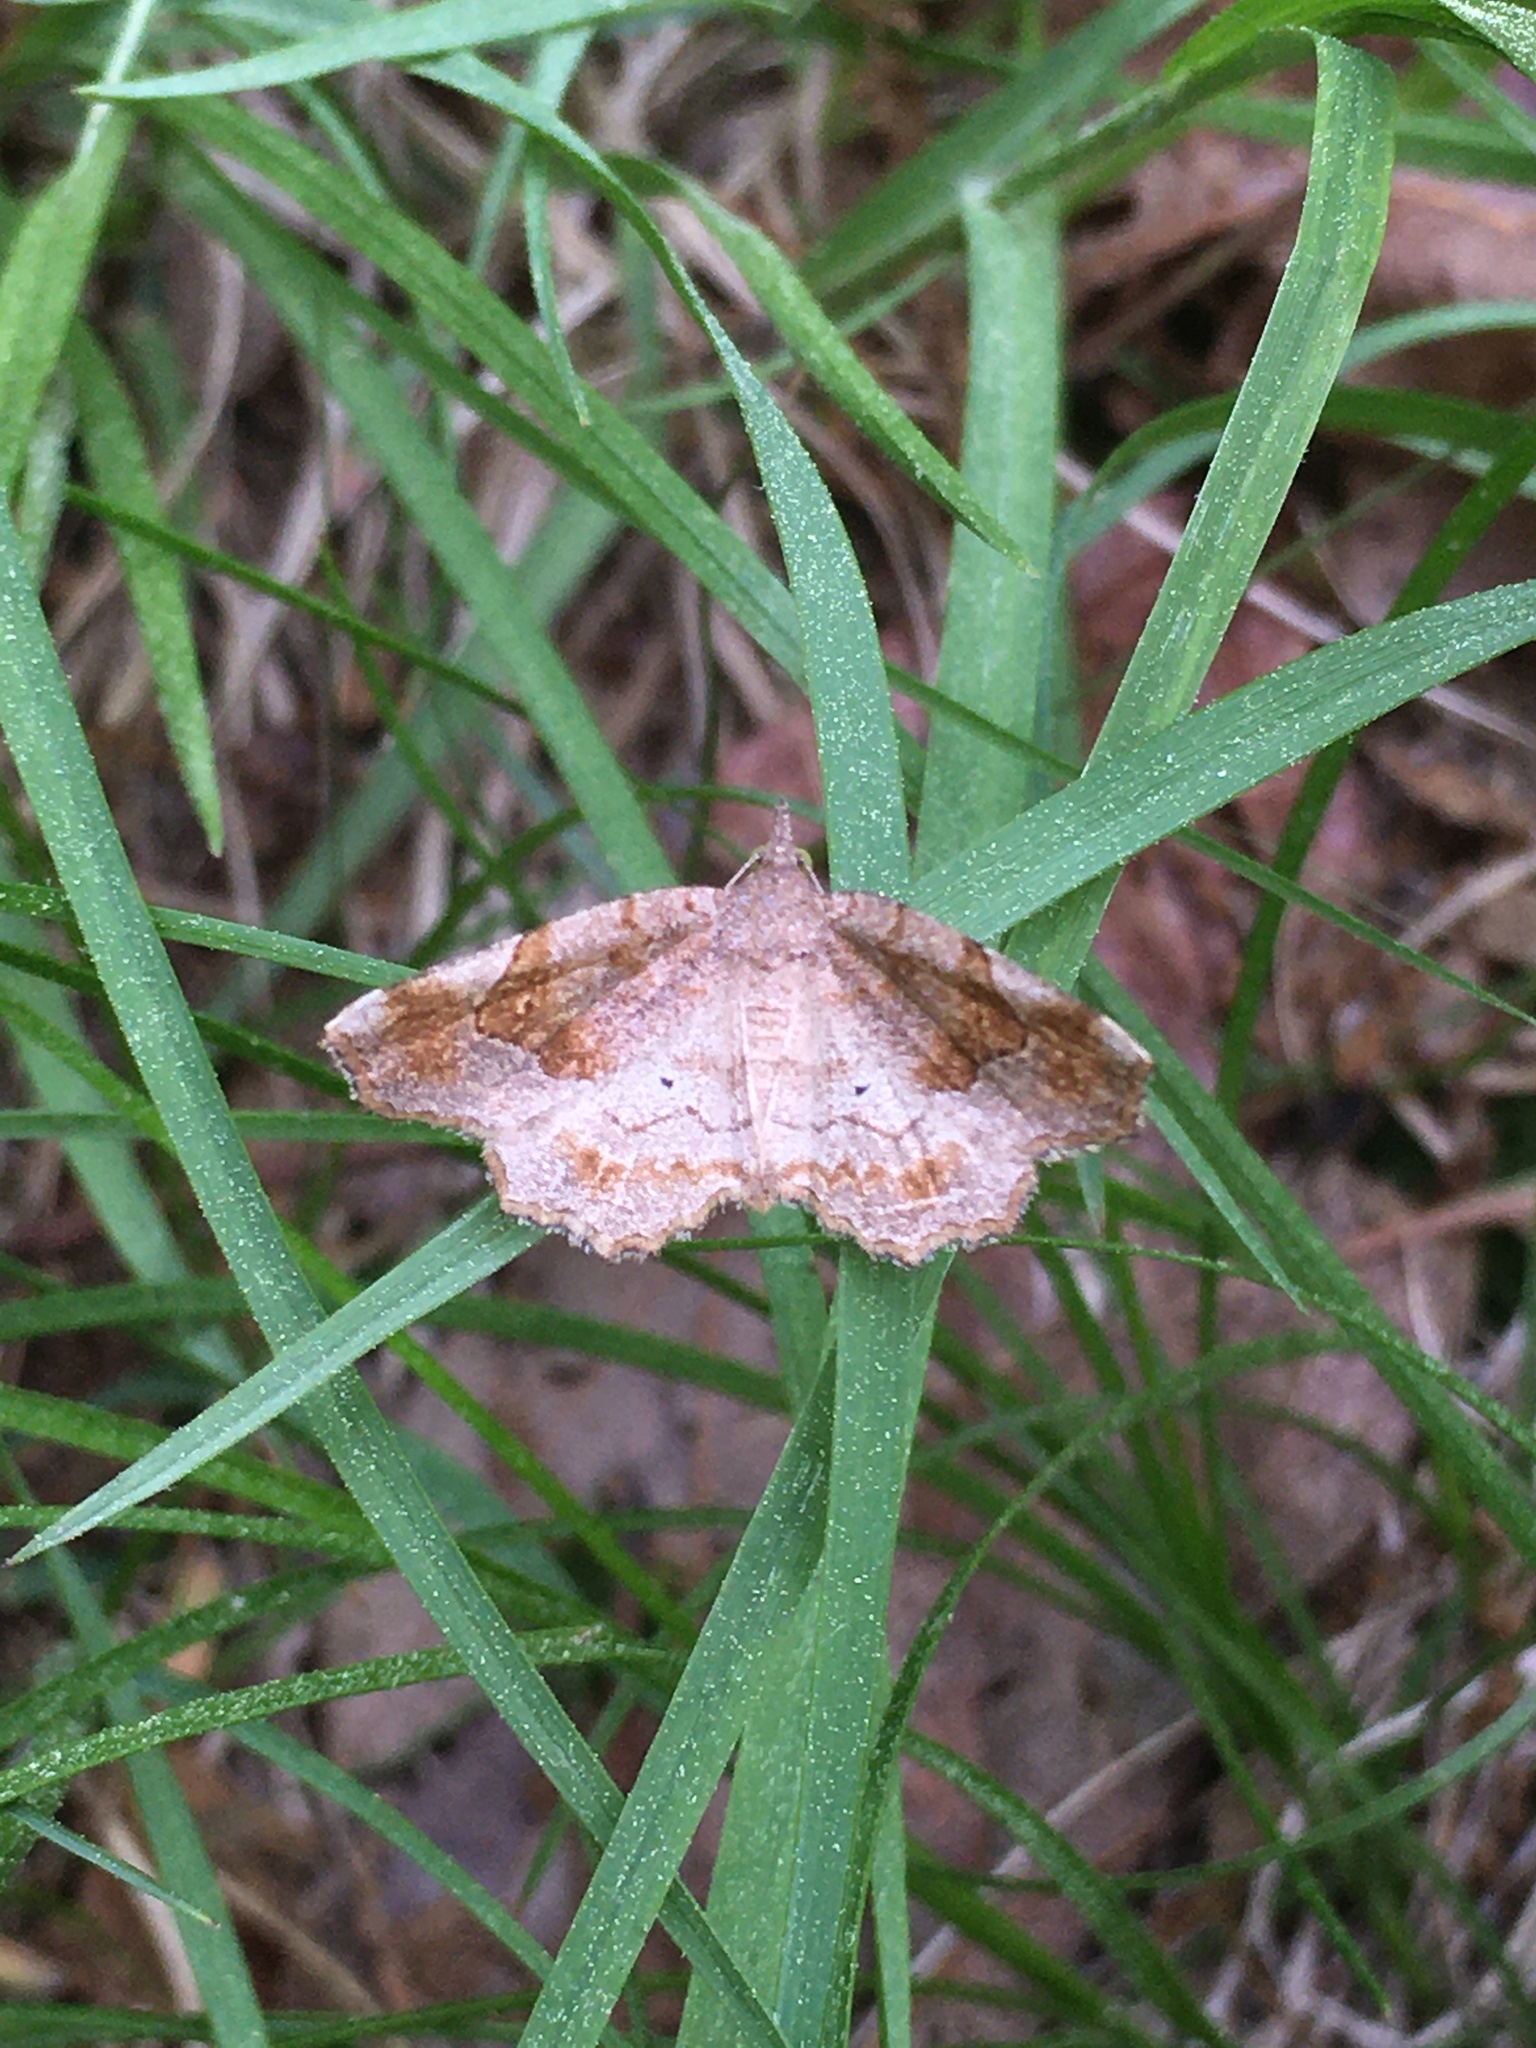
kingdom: Animalia
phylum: Arthropoda
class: Insecta
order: Lepidoptera
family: Erebidae
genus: Pangrapta
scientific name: Pangrapta decoralis
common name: Decorated owlet
